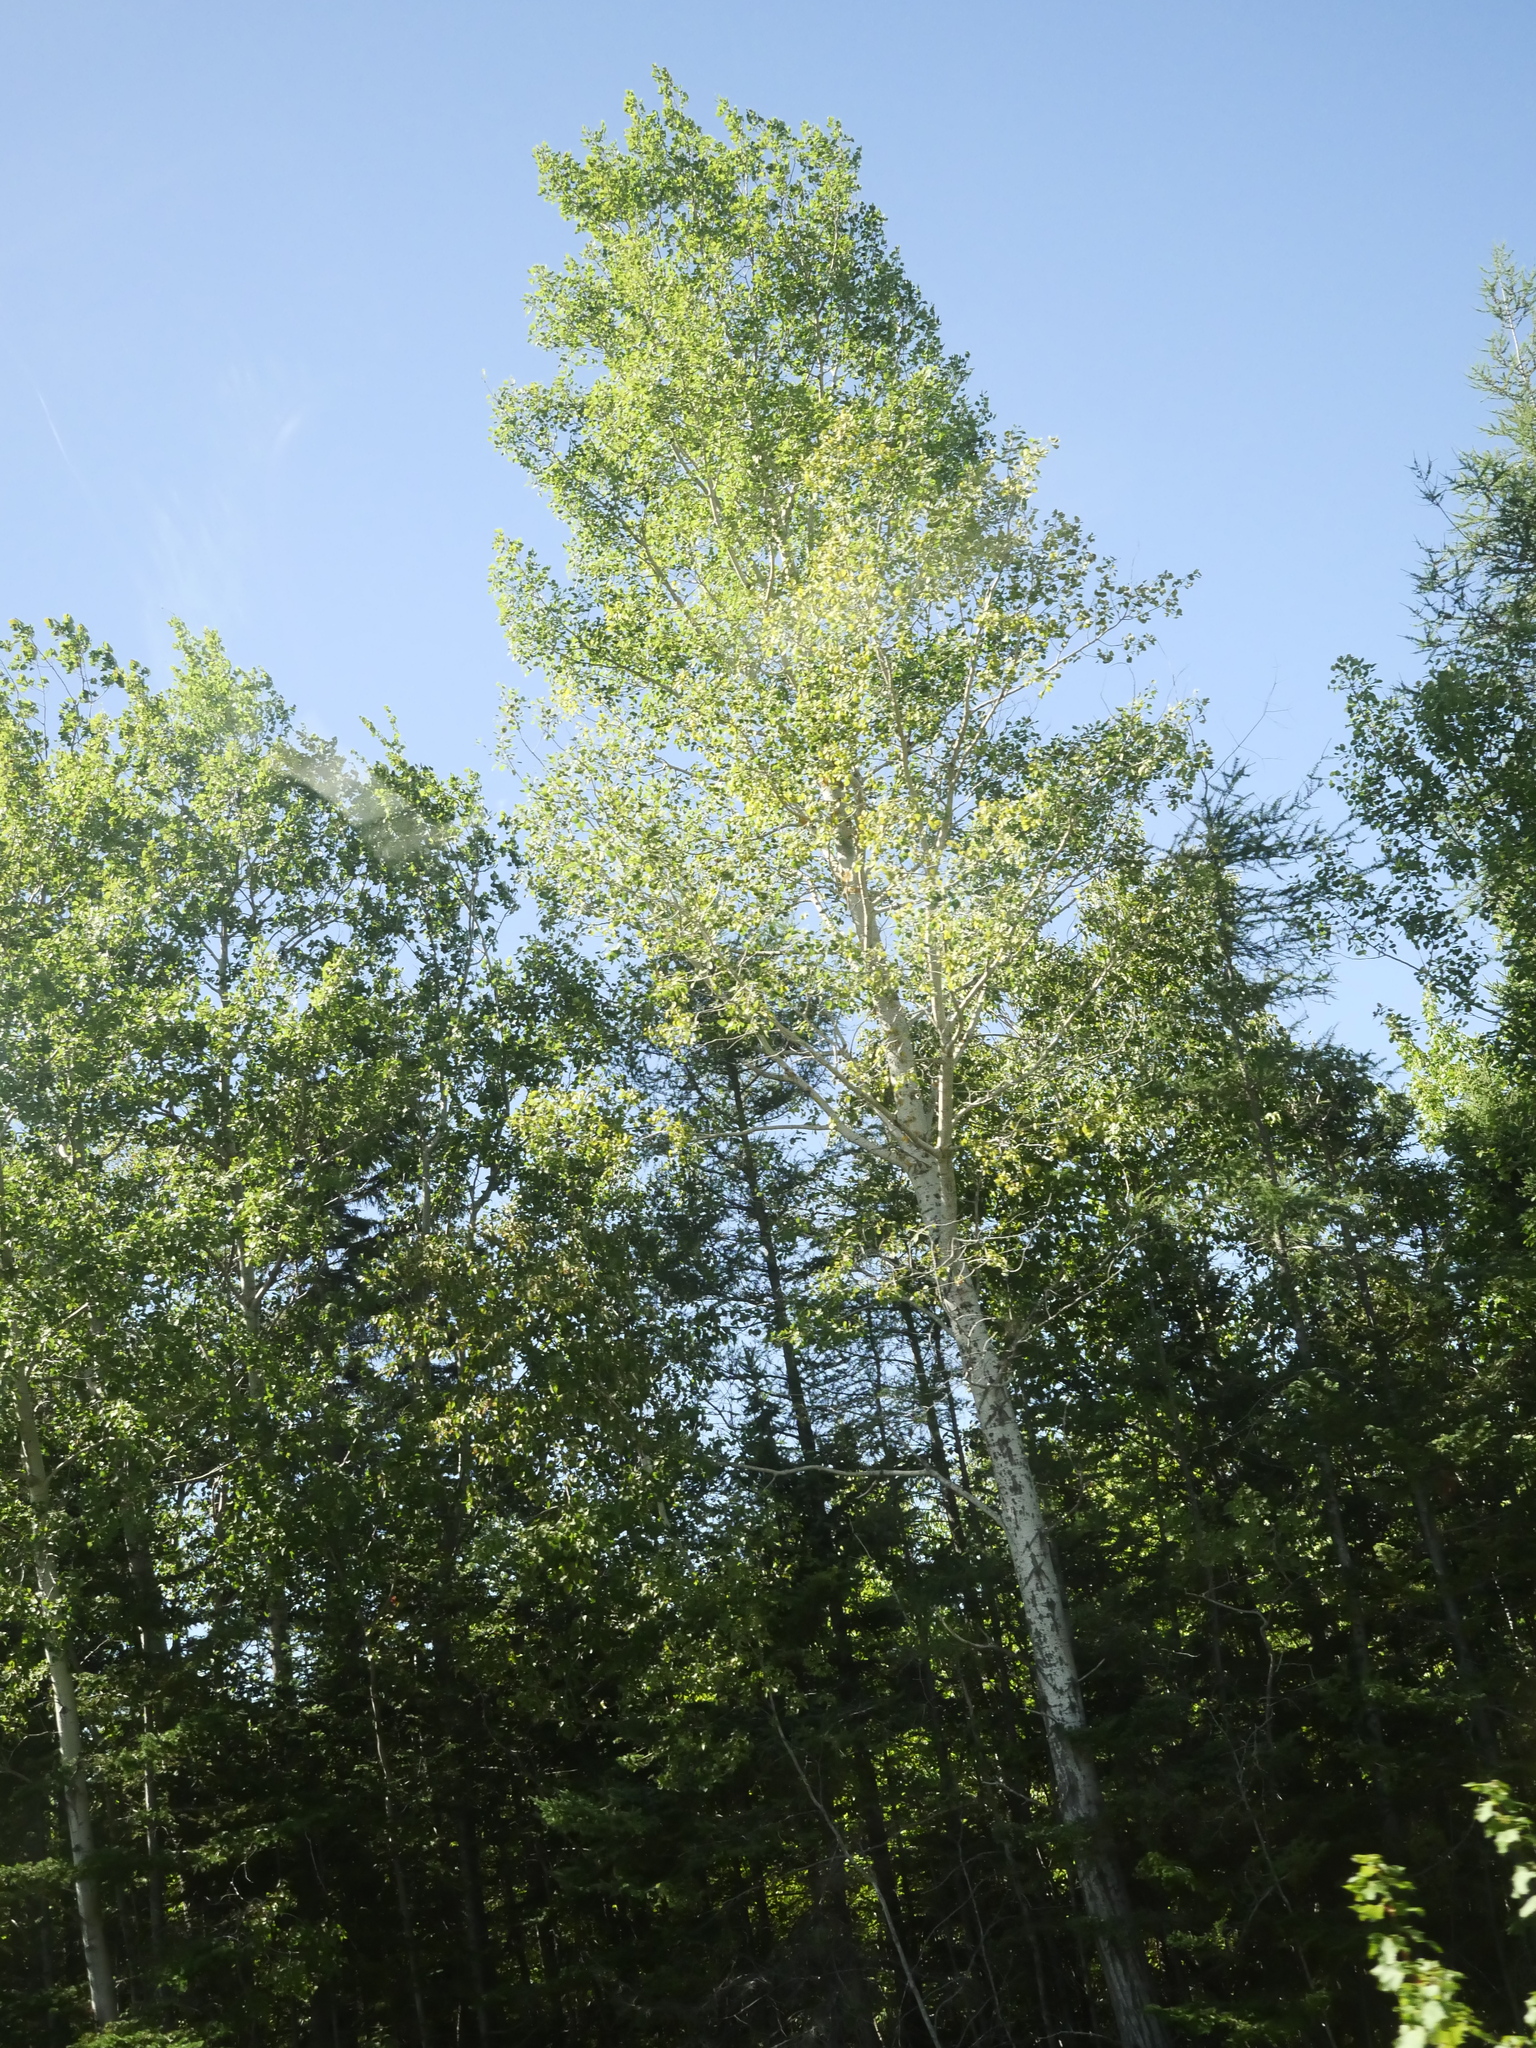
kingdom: Plantae
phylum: Tracheophyta
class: Magnoliopsida
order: Malpighiales
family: Salicaceae
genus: Populus
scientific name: Populus tremuloides
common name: Quaking aspen
